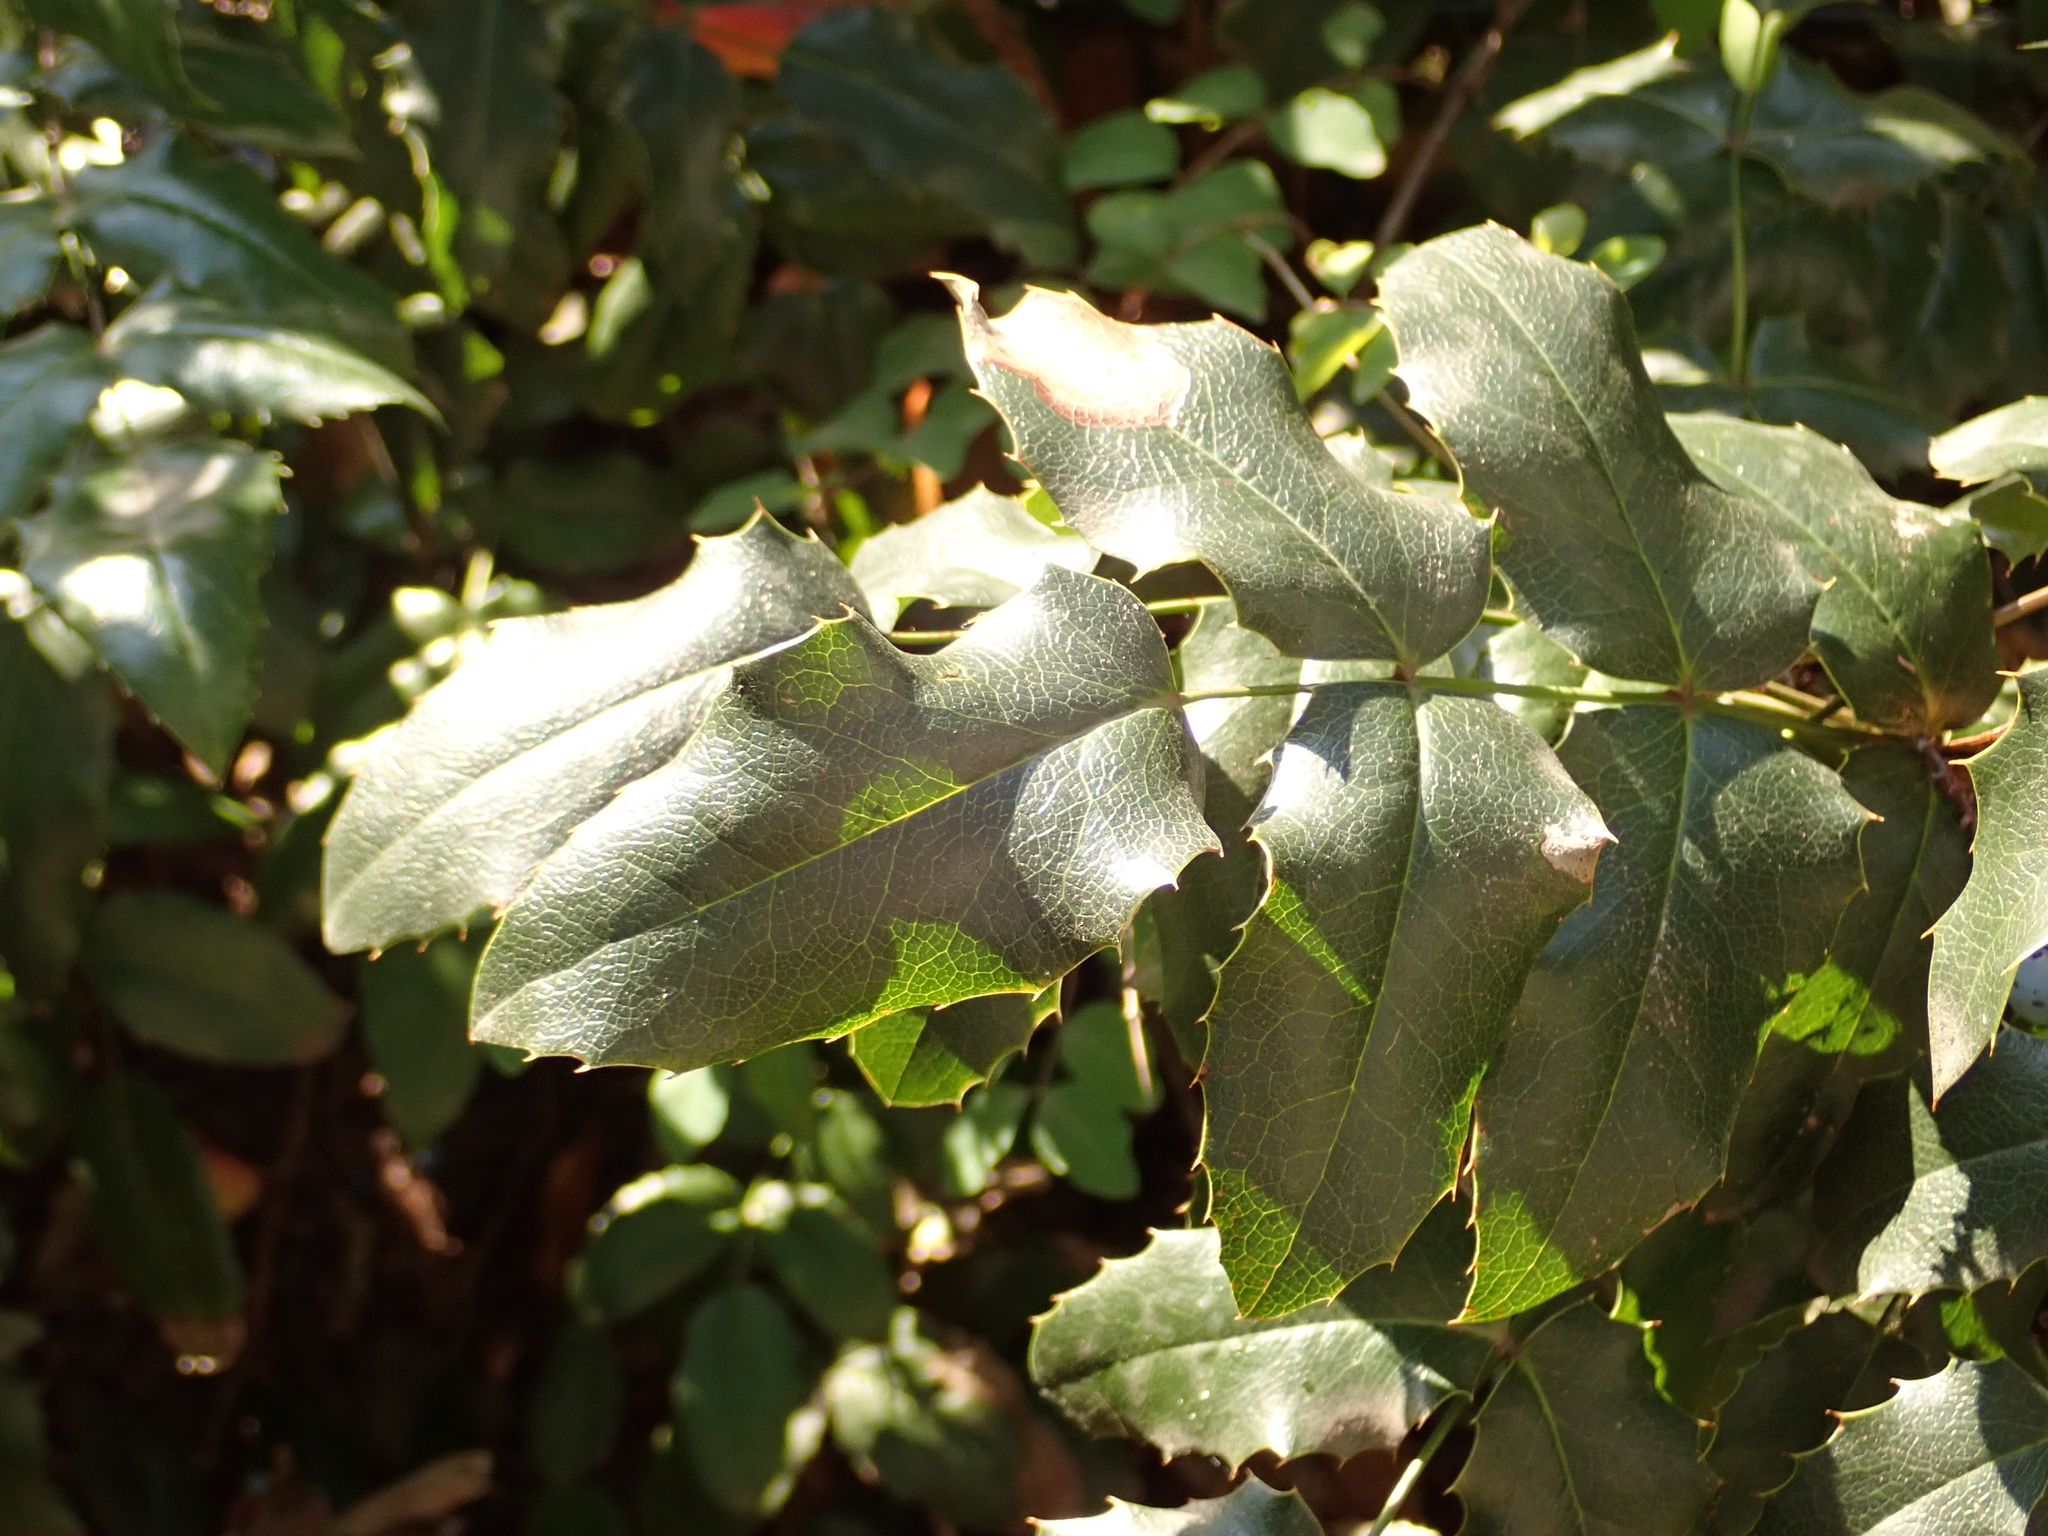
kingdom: Plantae
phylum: Tracheophyta
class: Magnoliopsida
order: Ranunculales
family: Berberidaceae
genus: Mahonia
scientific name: Mahonia aquifolium
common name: Oregon-grape
